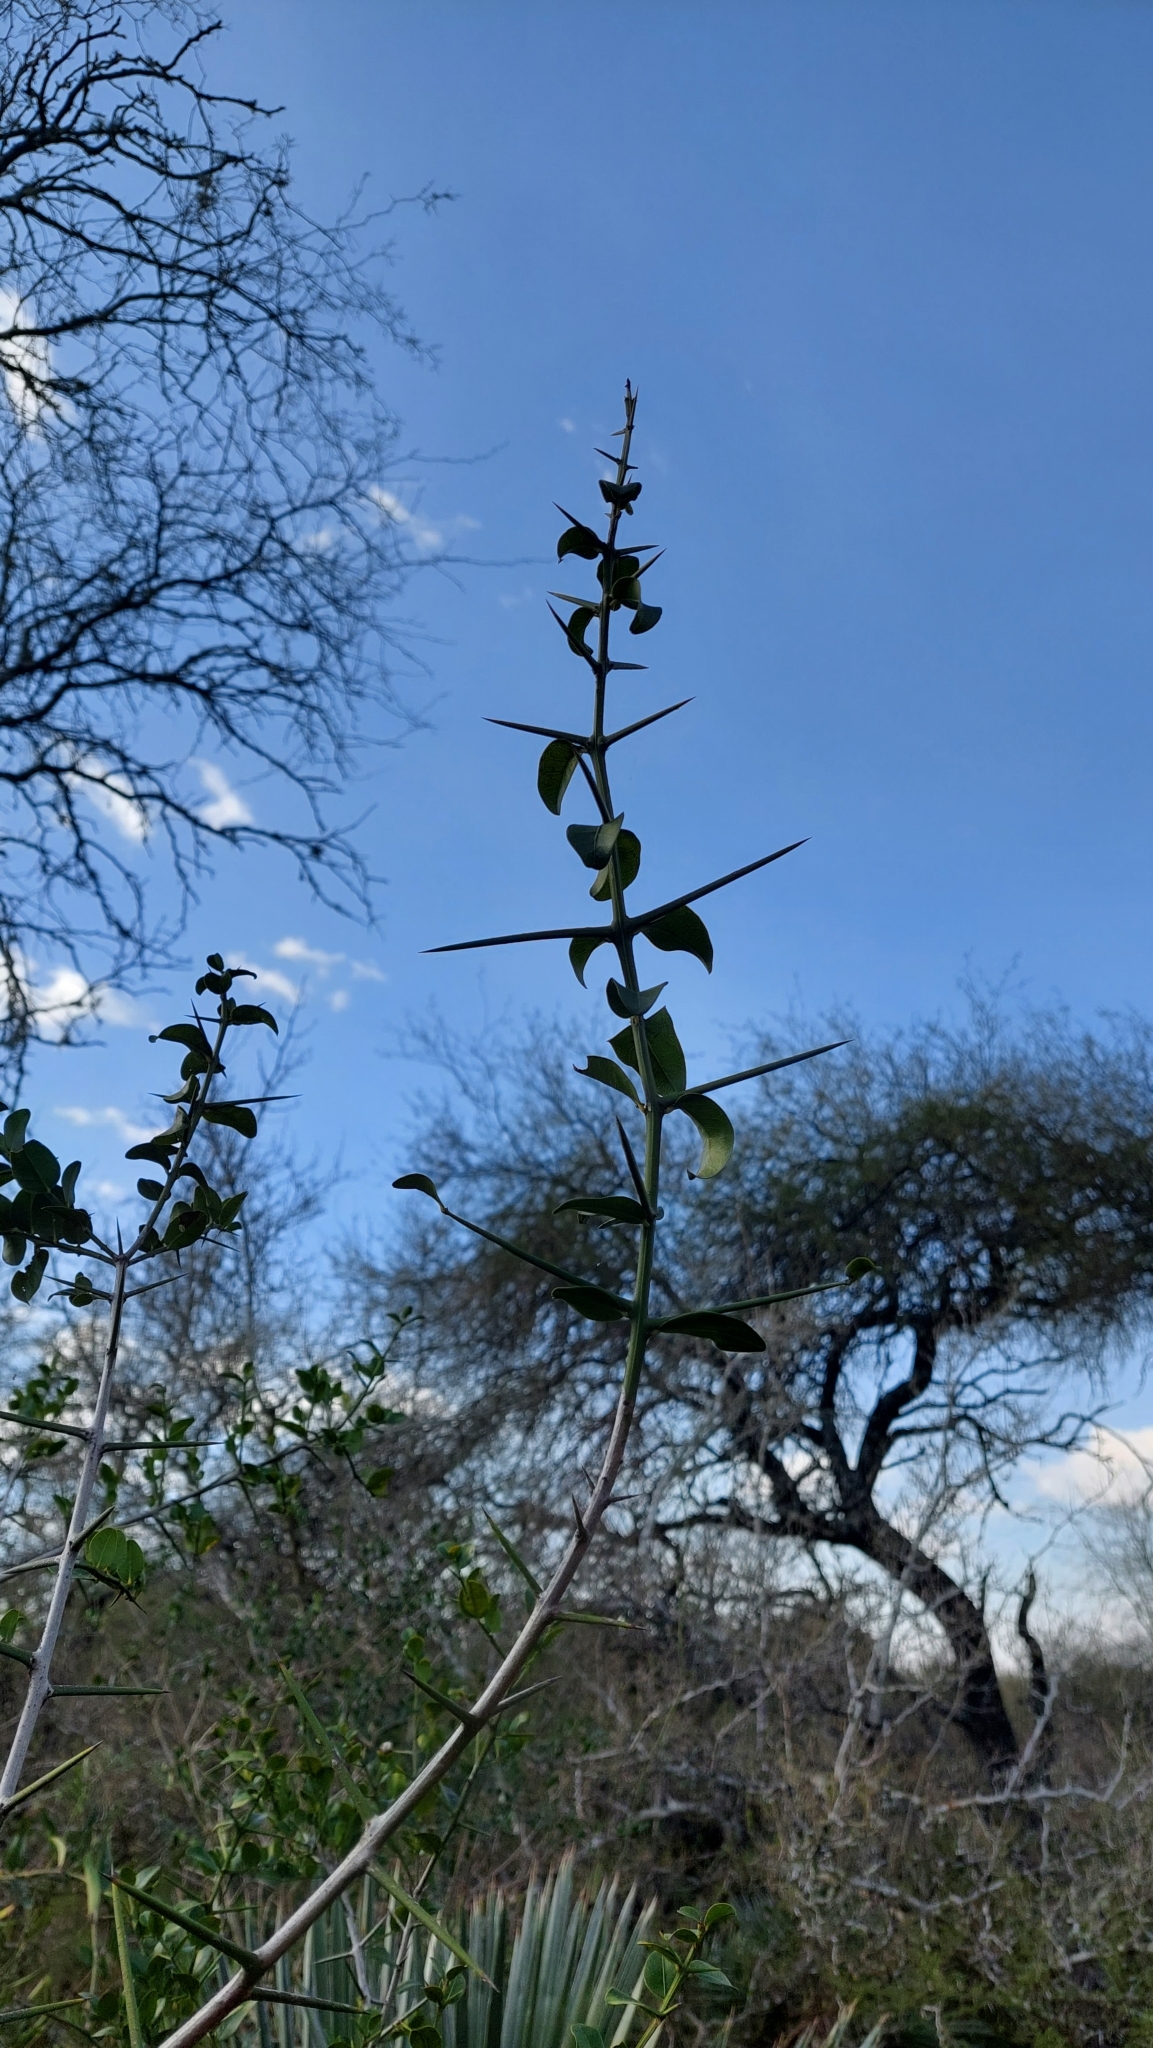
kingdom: Plantae
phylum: Tracheophyta
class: Magnoliopsida
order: Rosales
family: Rhamnaceae
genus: Scutia
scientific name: Scutia buxifolia
